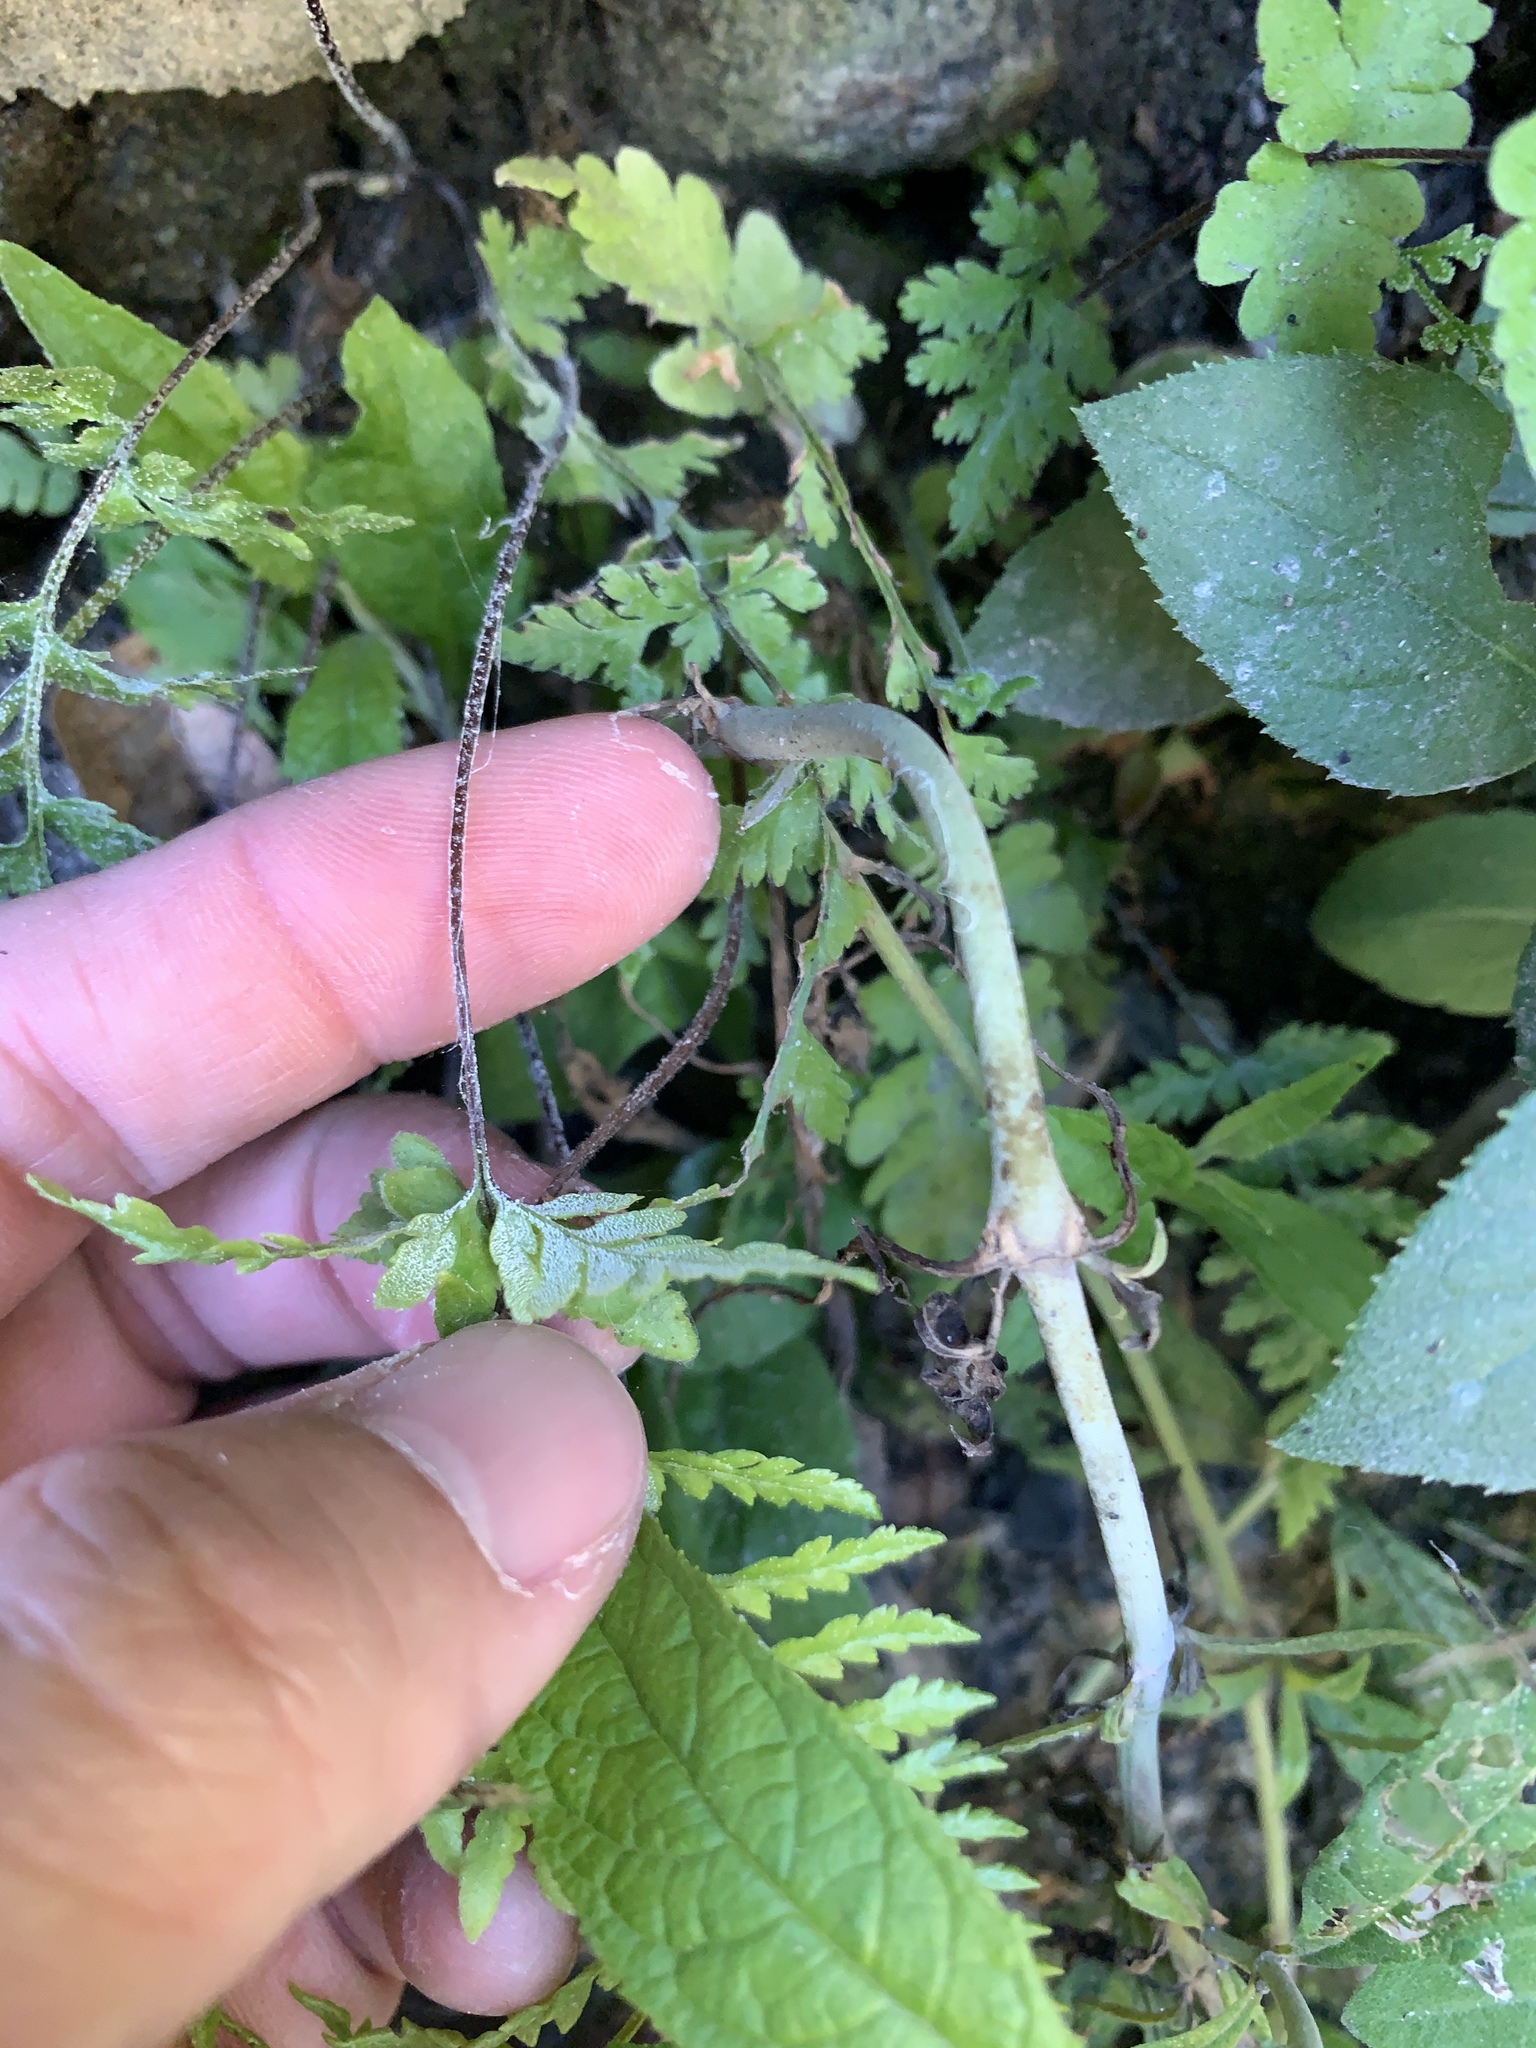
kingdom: Plantae
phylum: Tracheophyta
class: Polypodiopsida
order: Polypodiales
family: Pteridaceae
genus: Pityrogramma
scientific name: Pityrogramma calomelanos
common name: Dixie silverback fern
